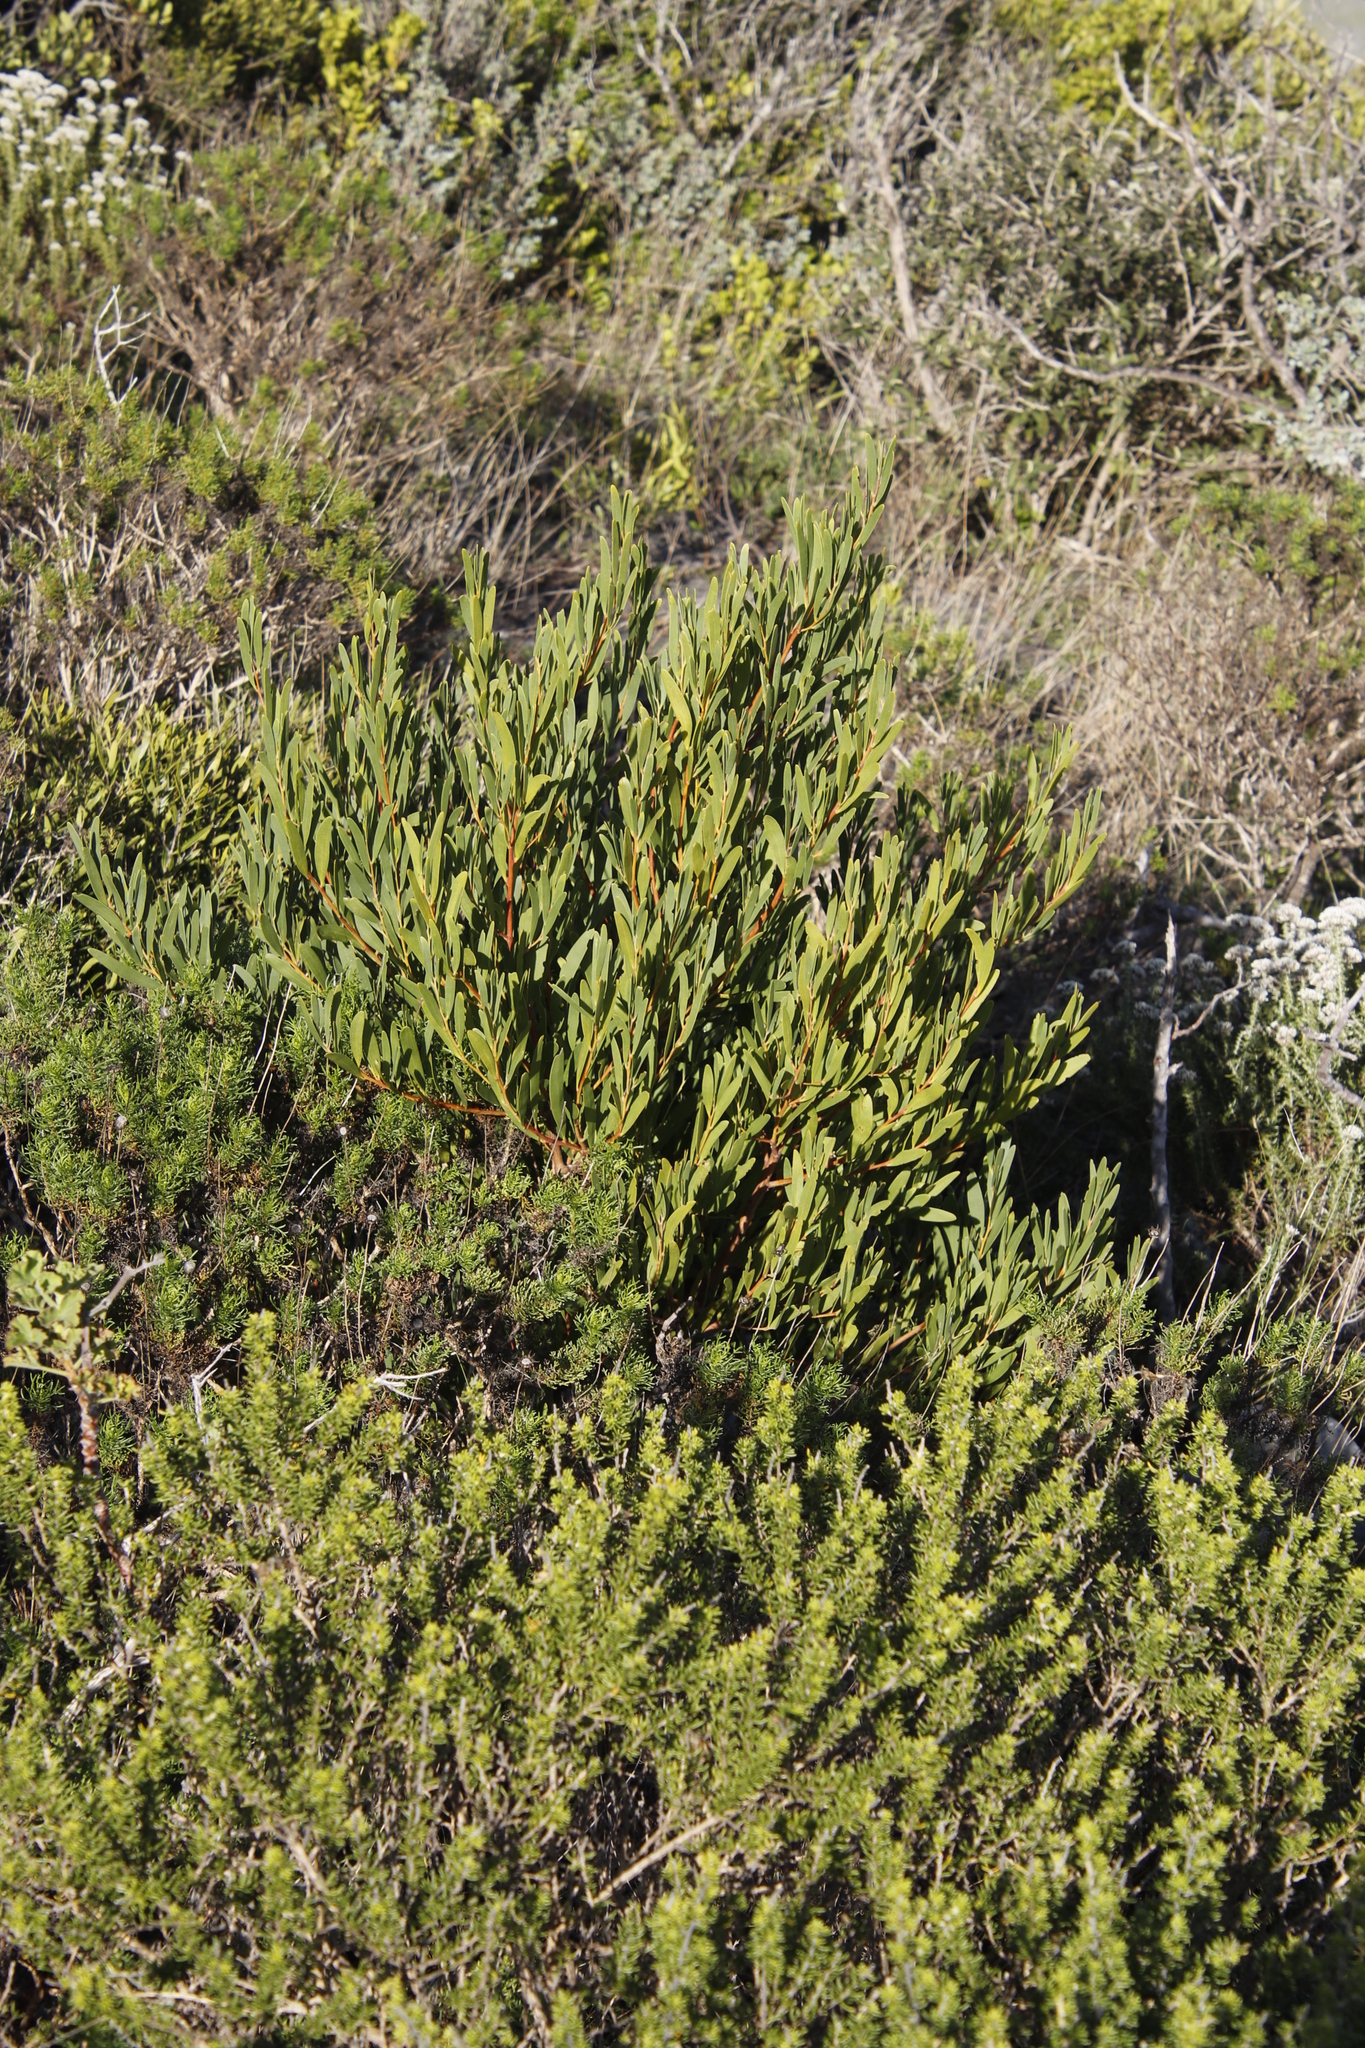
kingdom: Plantae
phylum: Tracheophyta
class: Magnoliopsida
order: Fabales
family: Fabaceae
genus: Acacia
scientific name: Acacia cyclops
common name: Coastal wattle
